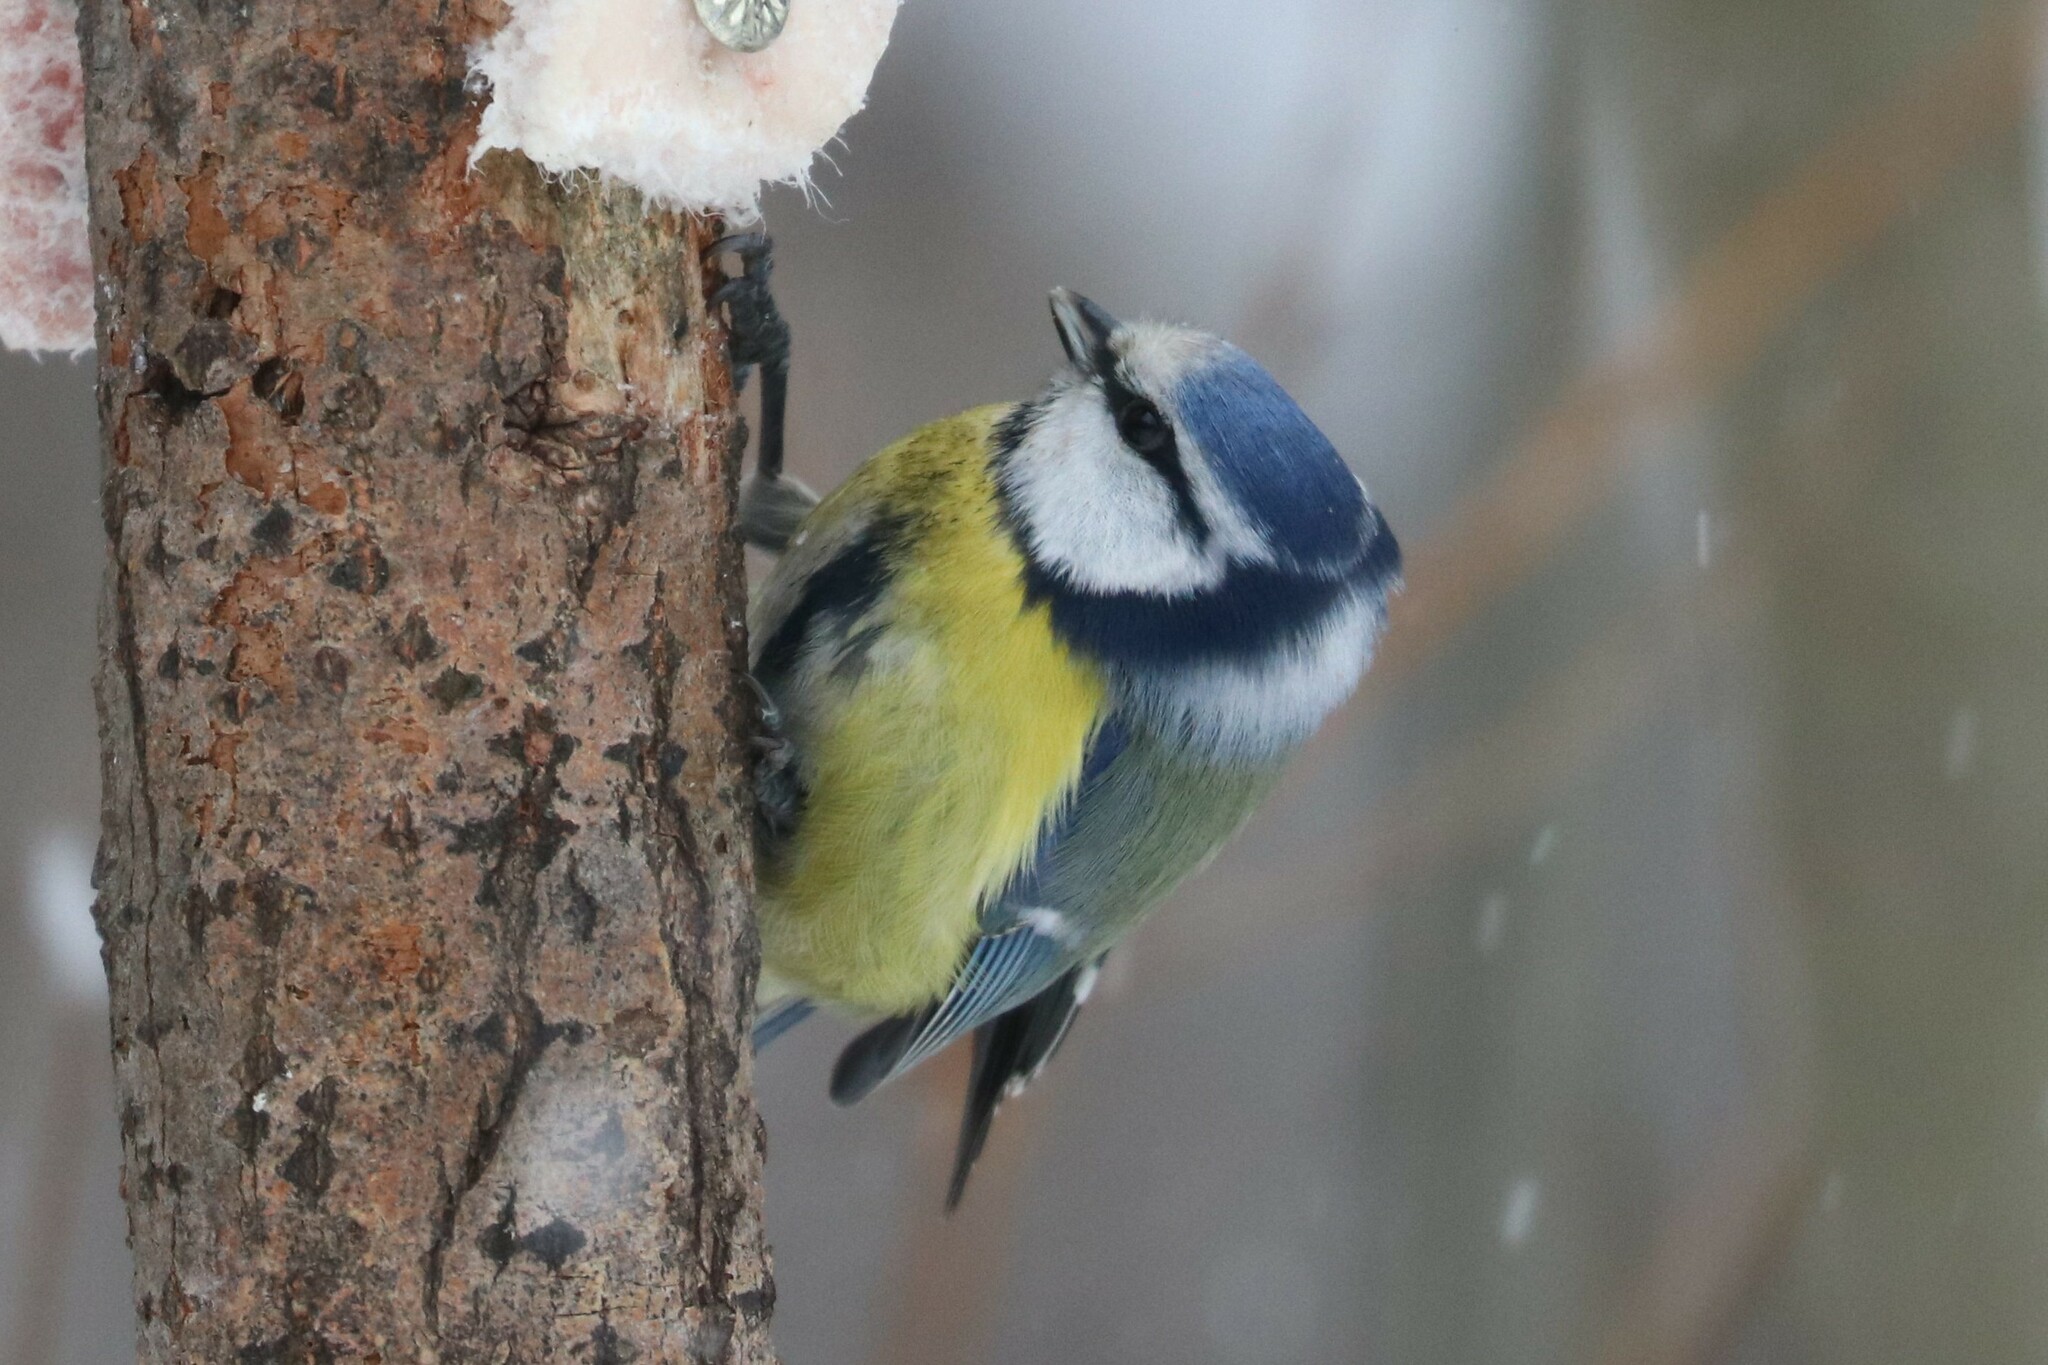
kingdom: Animalia
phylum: Chordata
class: Aves
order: Passeriformes
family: Paridae
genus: Cyanistes
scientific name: Cyanistes caeruleus
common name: Eurasian blue tit
